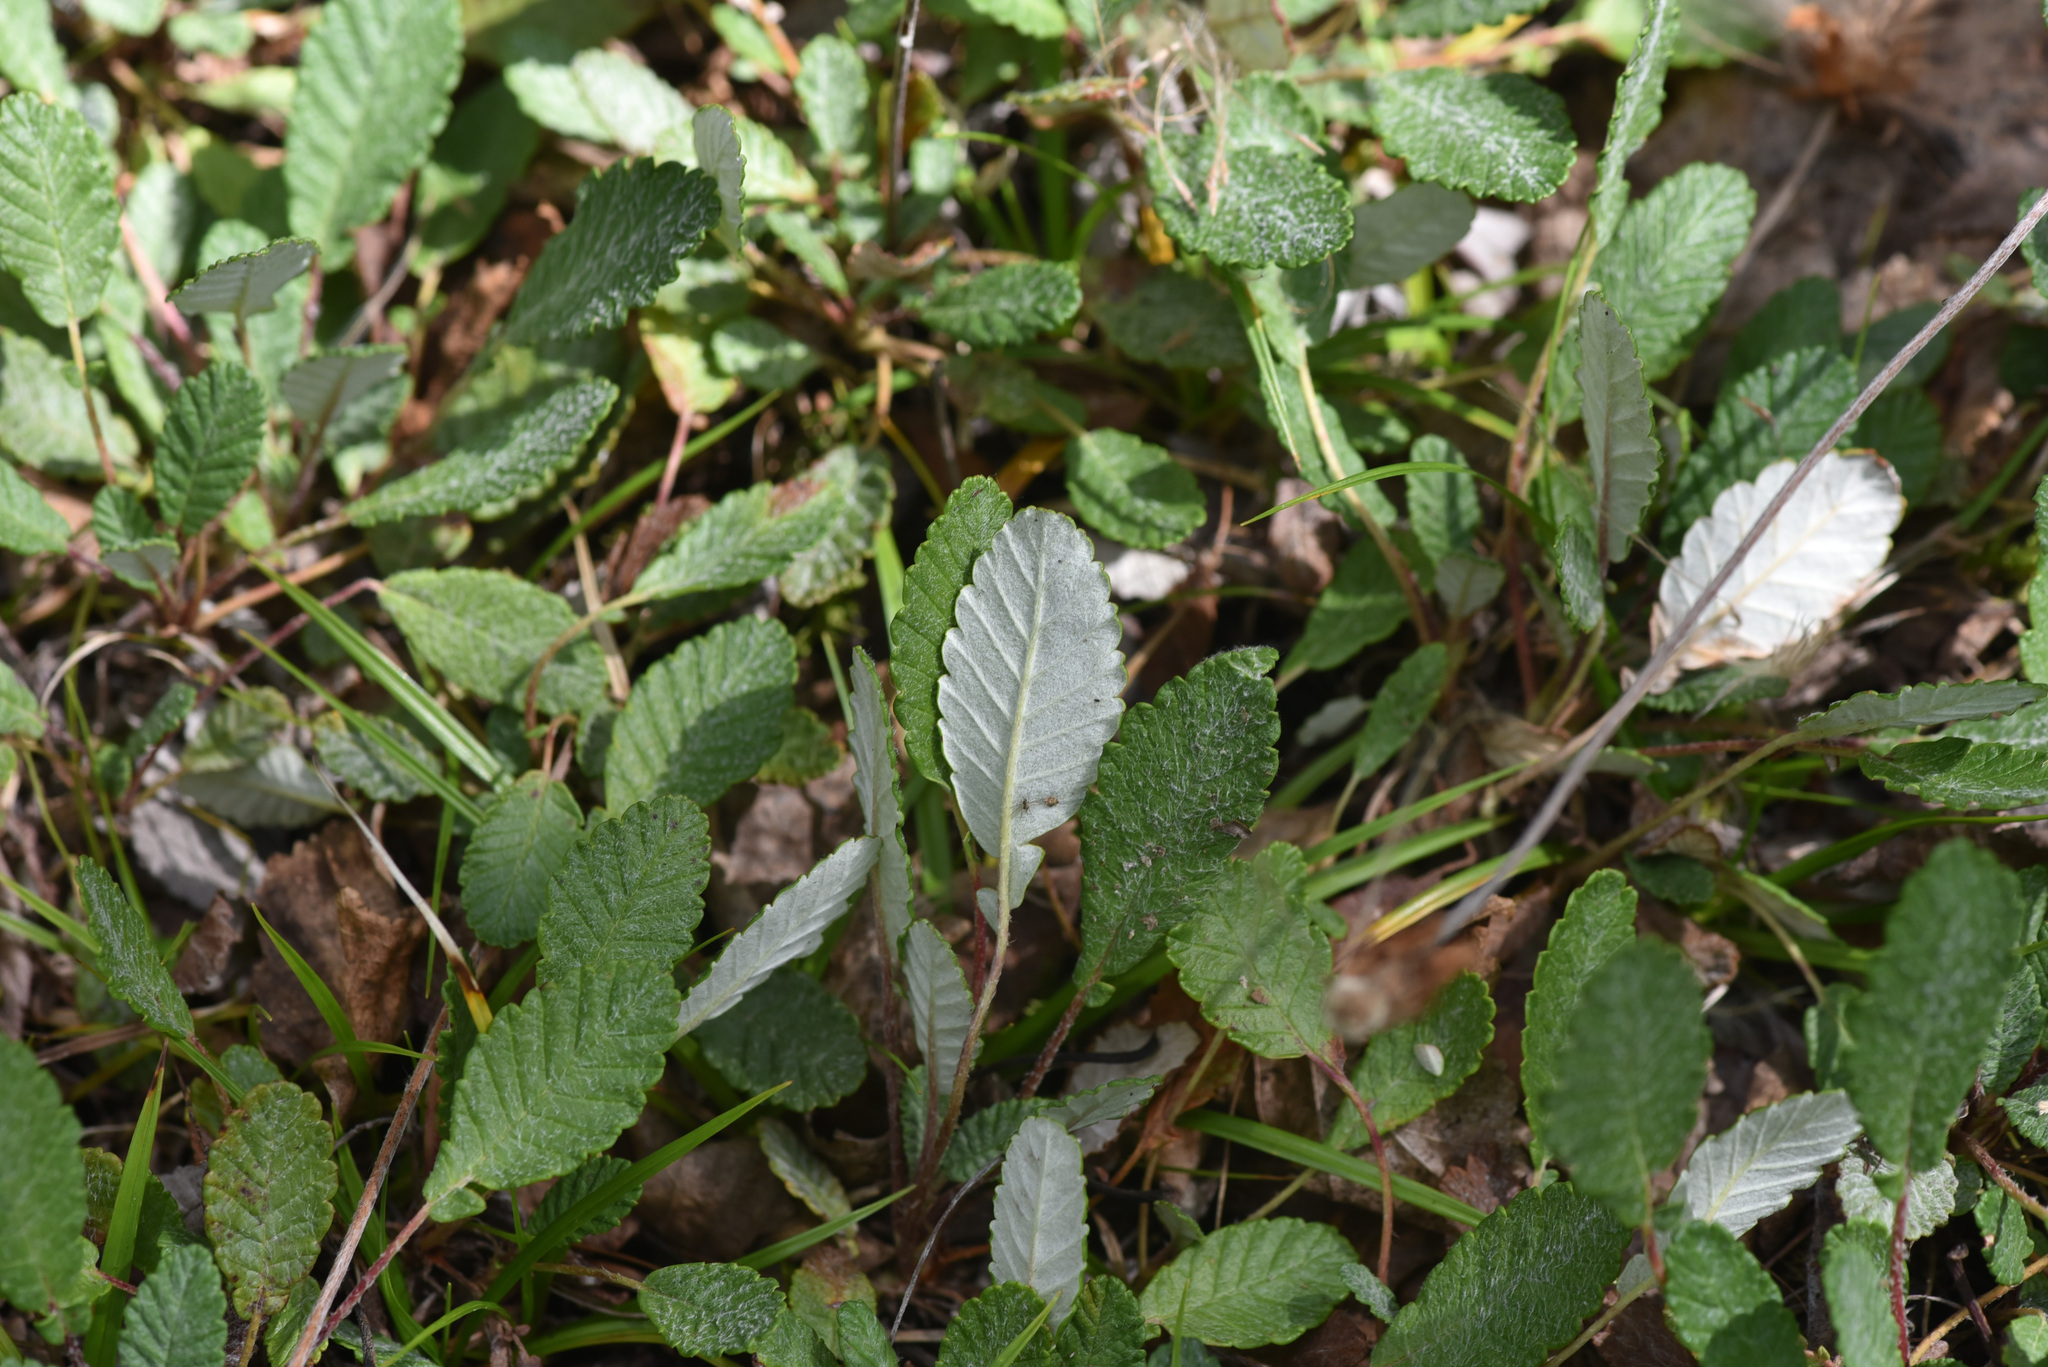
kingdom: Plantae
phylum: Tracheophyta
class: Magnoliopsida
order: Rosales
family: Rosaceae
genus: Dryas
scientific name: Dryas drummondii
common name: Drummond's dryad
